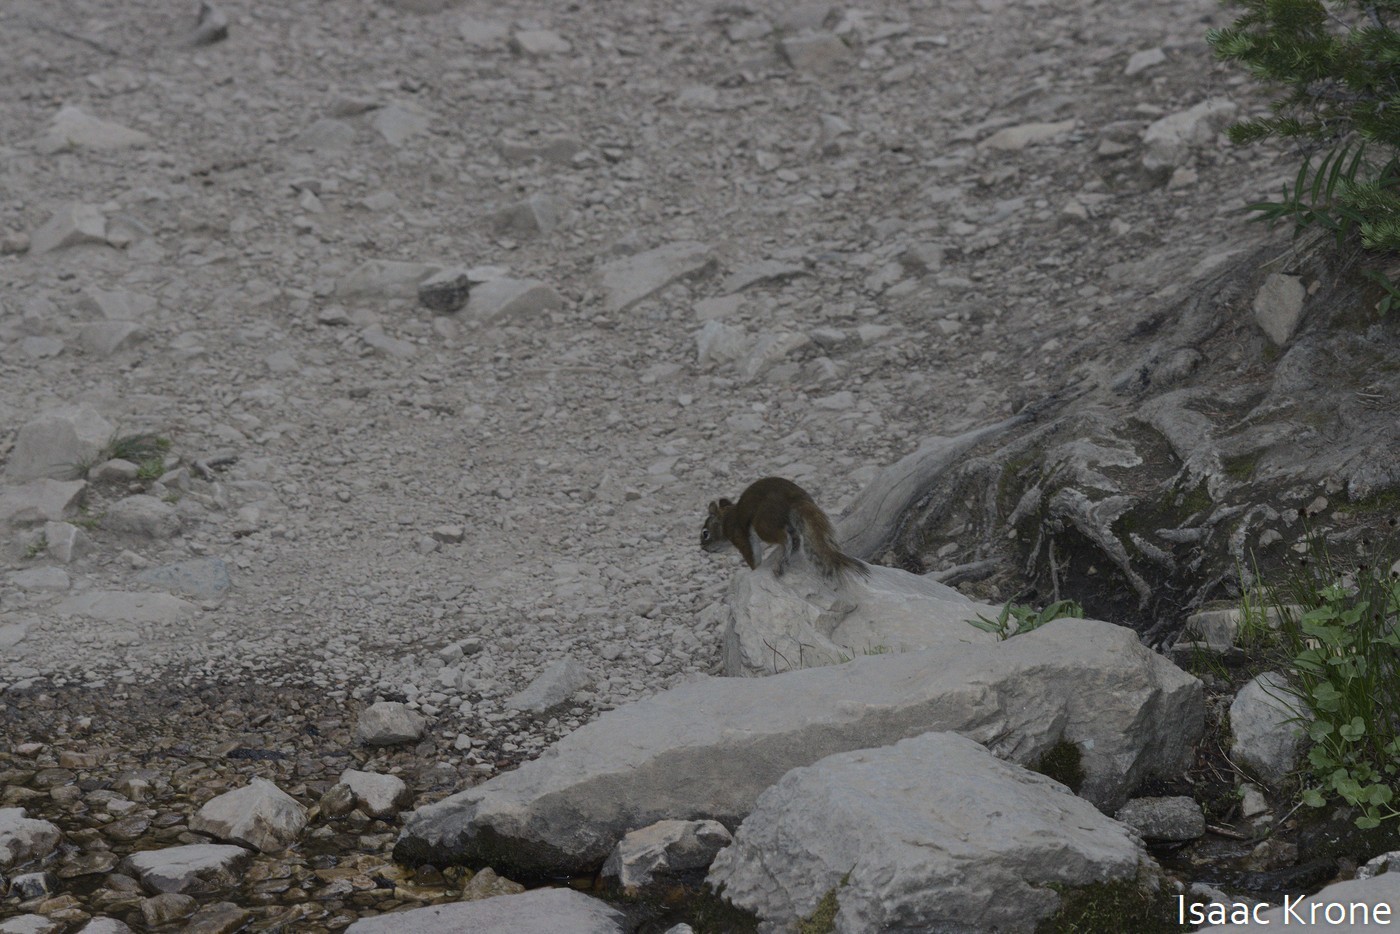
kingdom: Animalia
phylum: Chordata
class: Mammalia
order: Rodentia
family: Sciuridae
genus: Tamiasciurus
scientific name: Tamiasciurus hudsonicus
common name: Red squirrel
